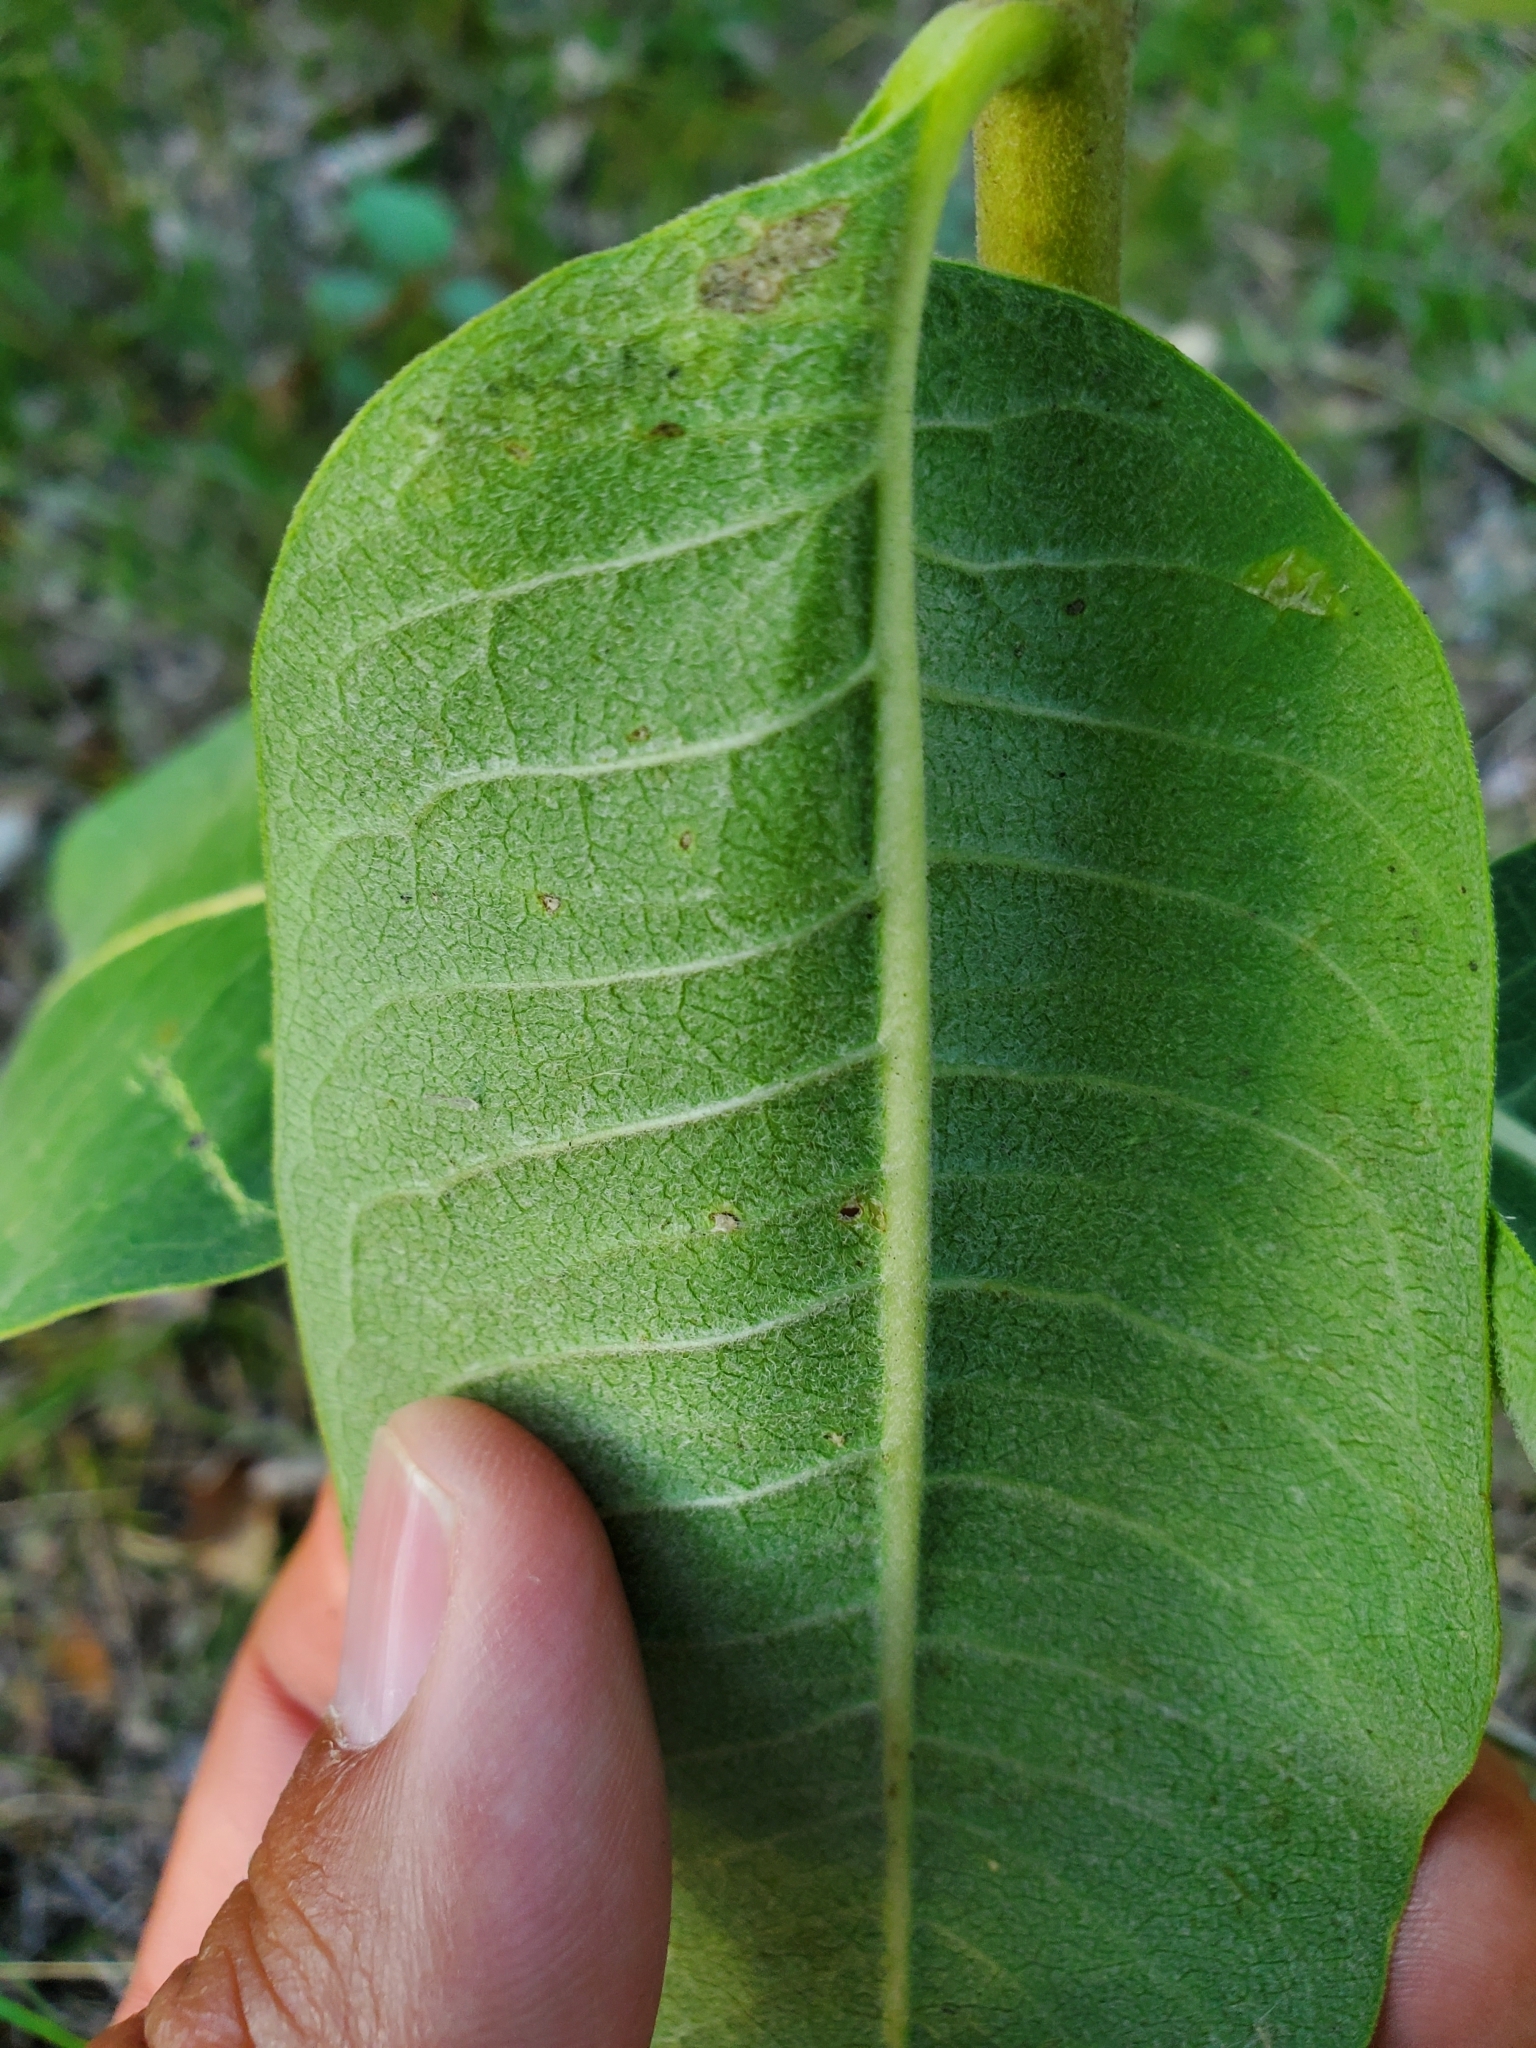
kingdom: Animalia
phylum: Arthropoda
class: Insecta
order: Diptera
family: Agromyzidae
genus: Liriomyza
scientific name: Liriomyza asclepiadis
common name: Milkweed leaf-miner fly
